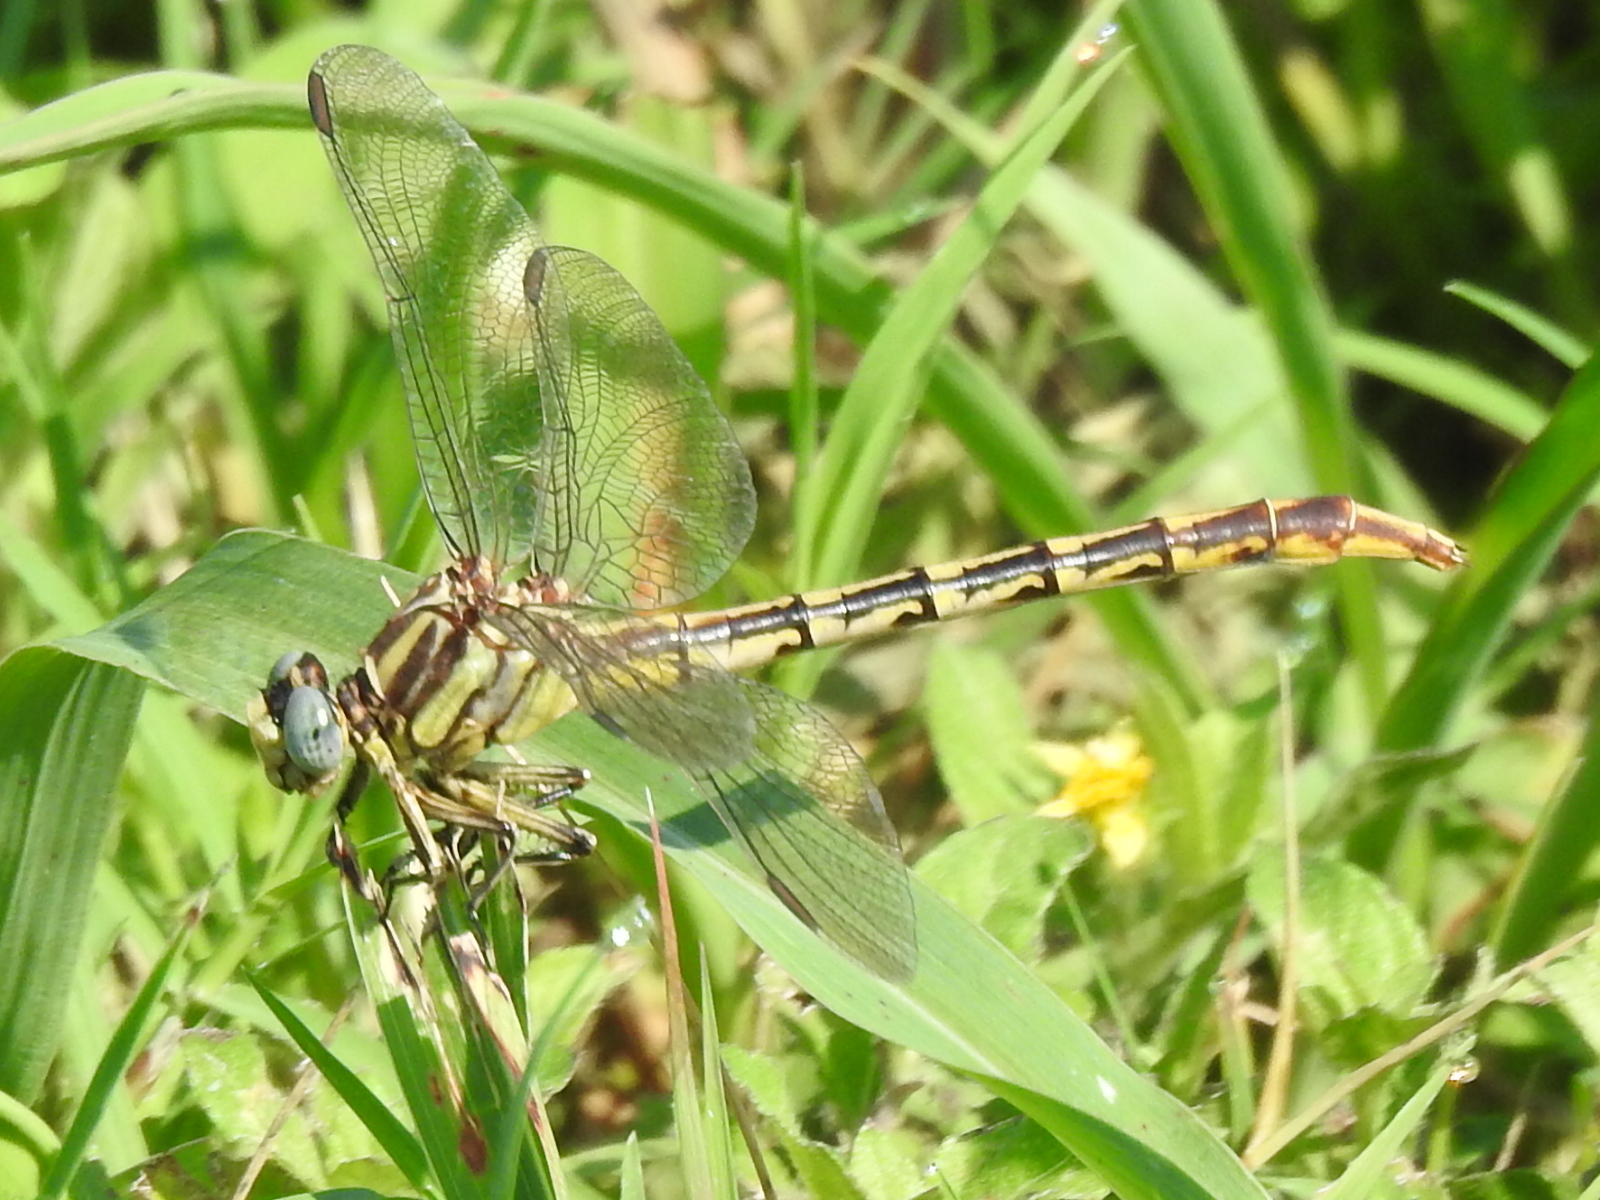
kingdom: Animalia
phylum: Arthropoda
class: Insecta
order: Odonata
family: Gomphidae
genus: Phanogomphus
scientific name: Phanogomphus militaris
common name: Sulphur-tipped clubtail
